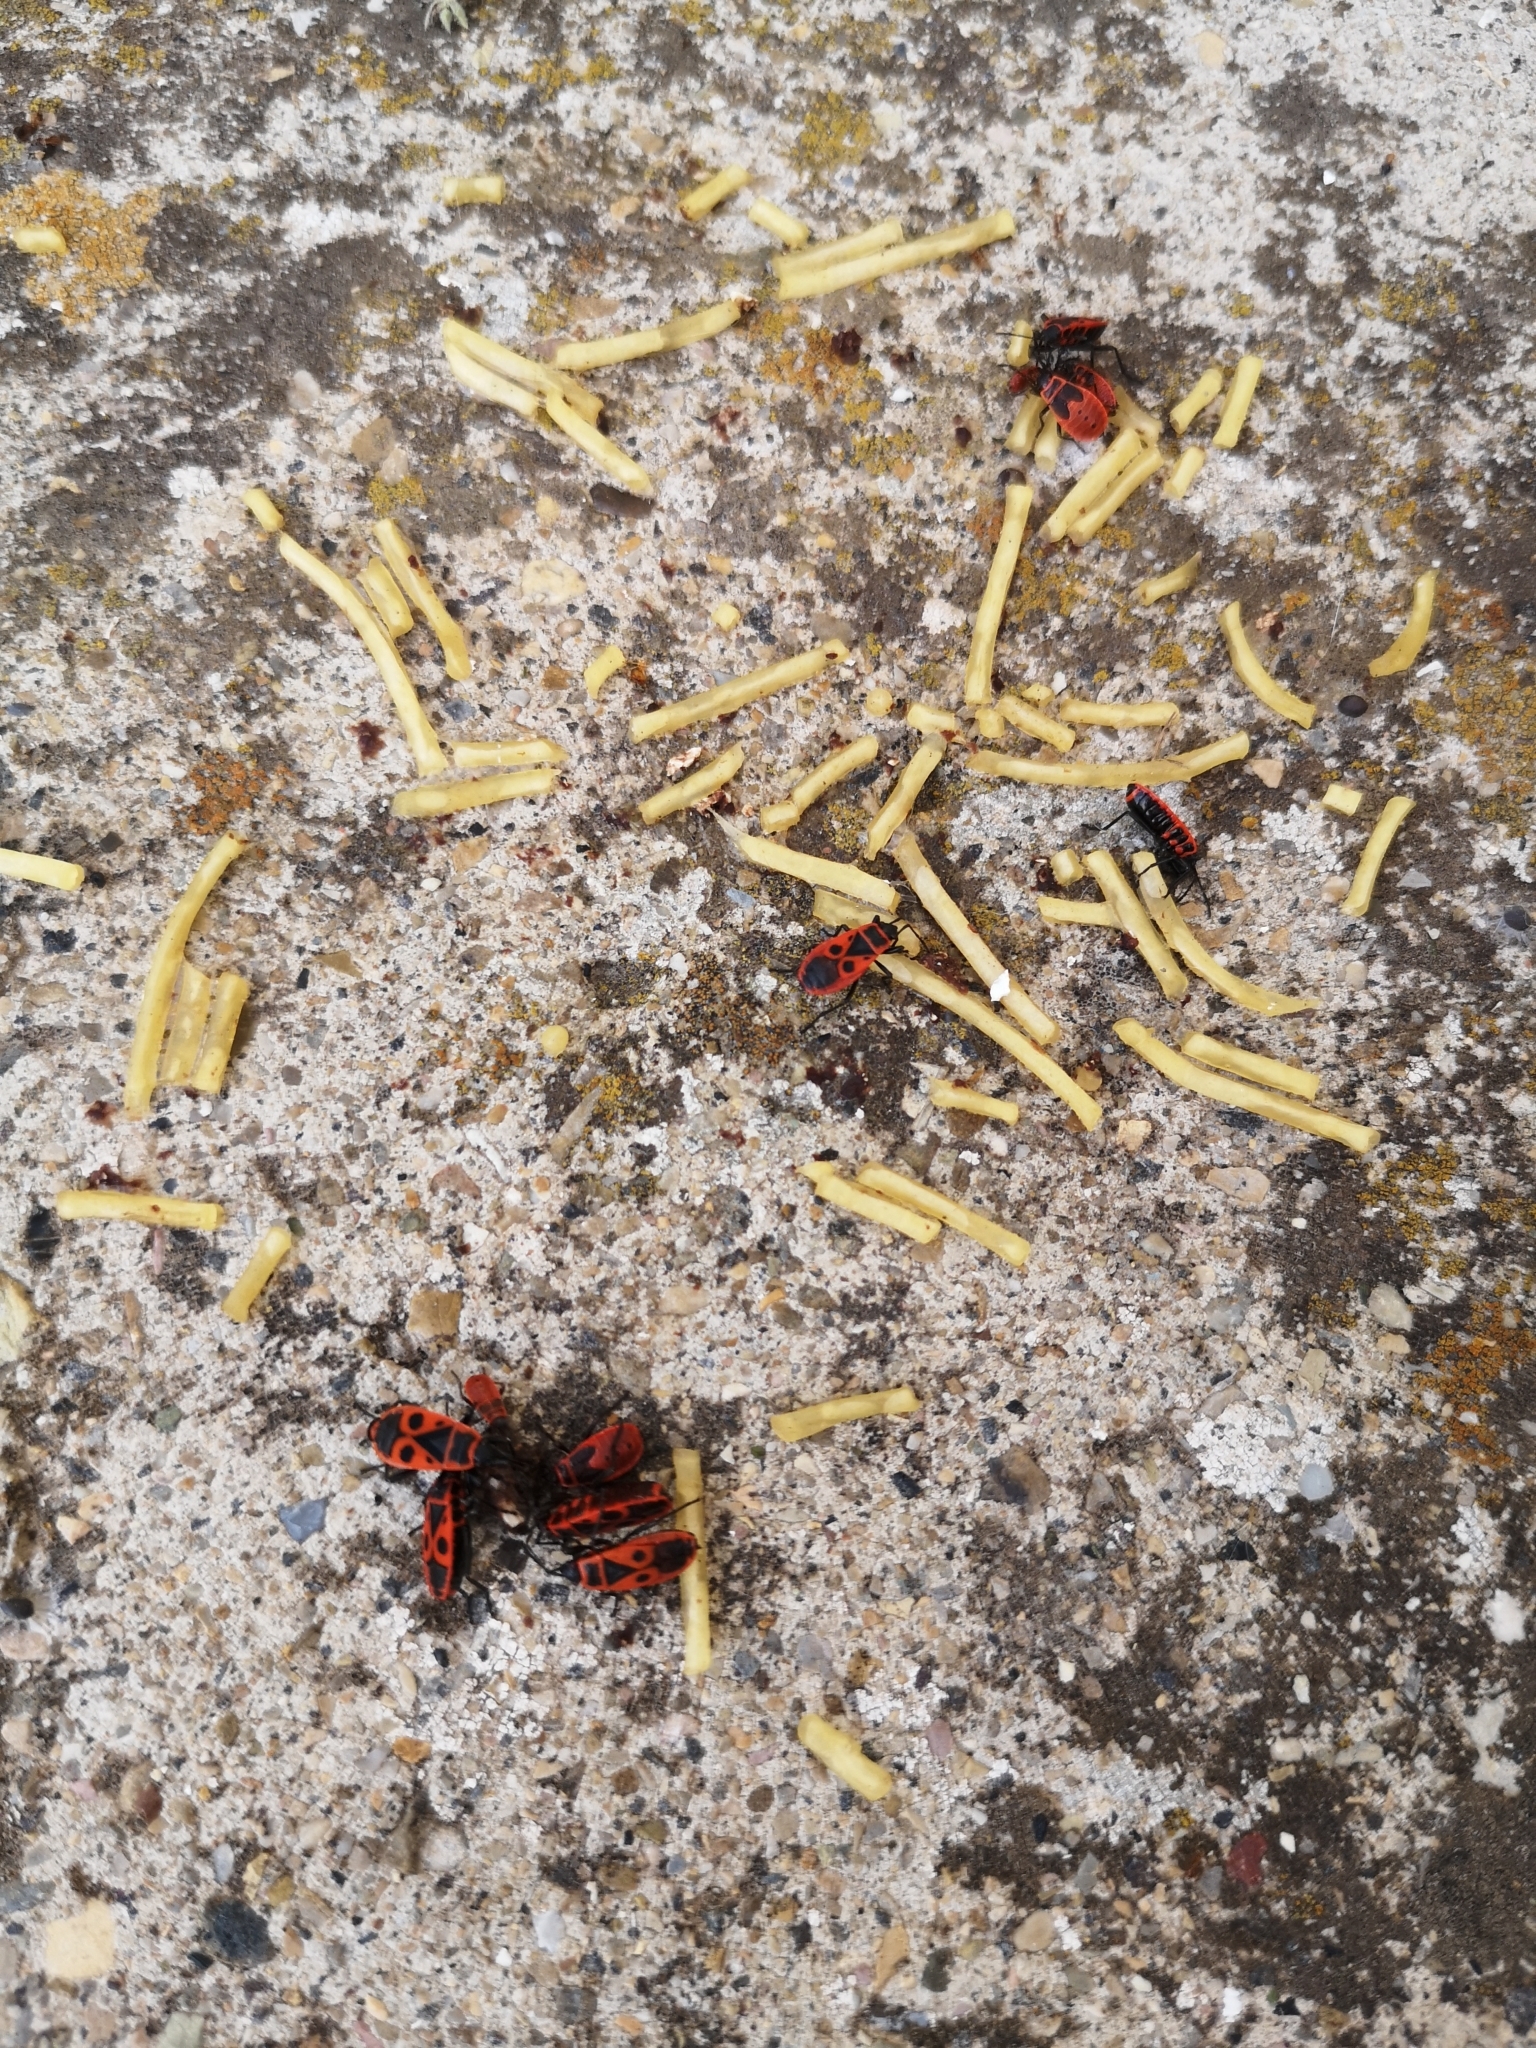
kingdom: Animalia
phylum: Arthropoda
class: Insecta
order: Hemiptera
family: Pyrrhocoridae
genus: Pyrrhocoris
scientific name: Pyrrhocoris apterus
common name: Firebug
